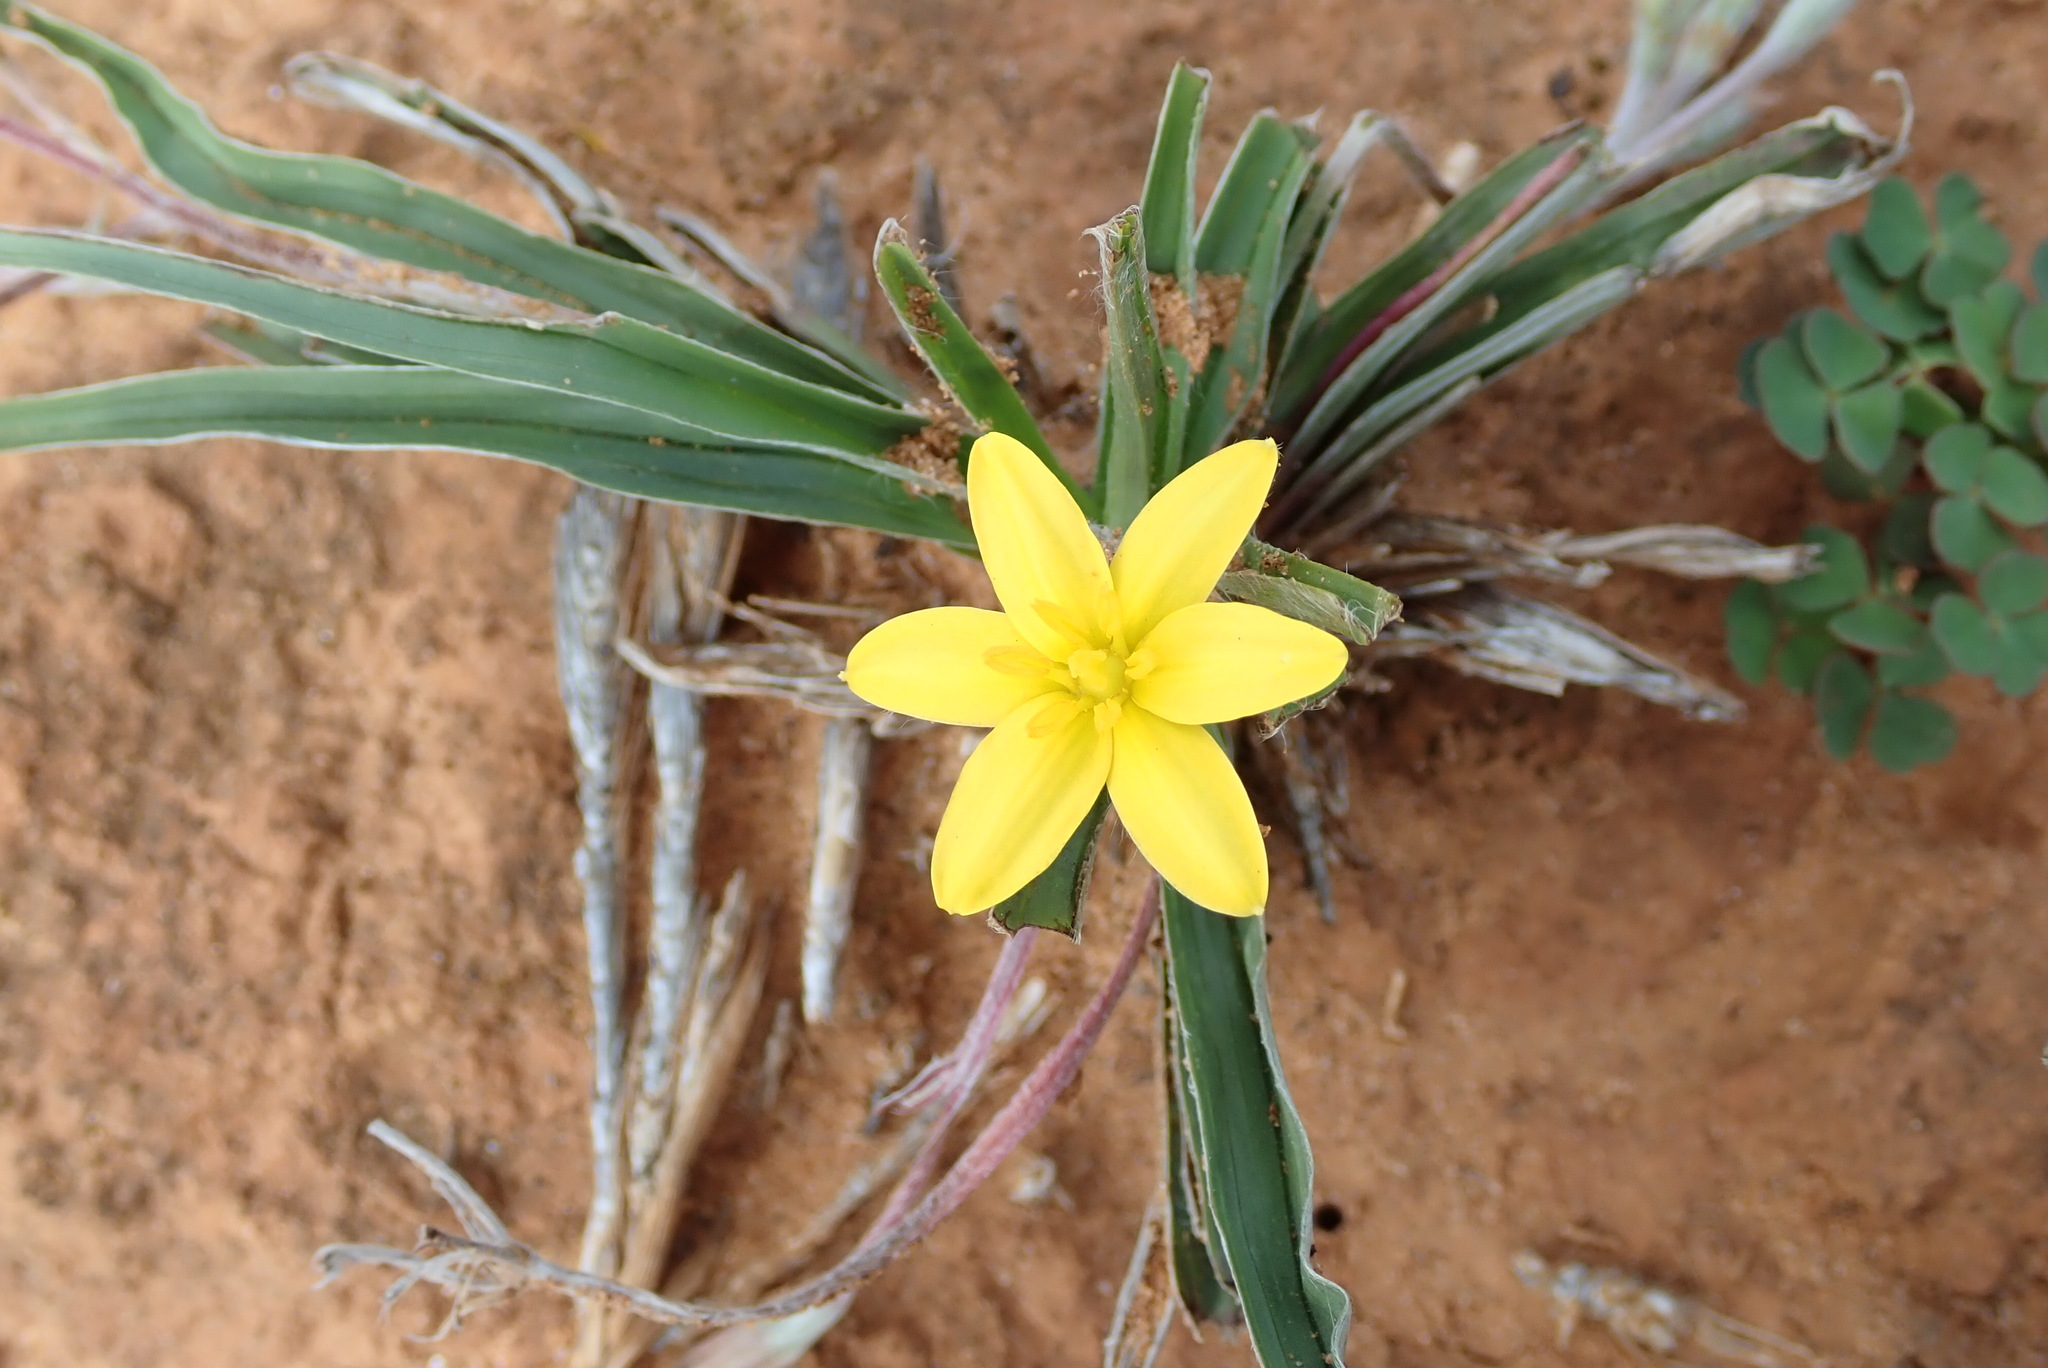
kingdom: Plantae
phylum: Tracheophyta
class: Liliopsida
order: Asparagales
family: Hypoxidaceae
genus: Hypoxis
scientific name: Hypoxis stellipilis
